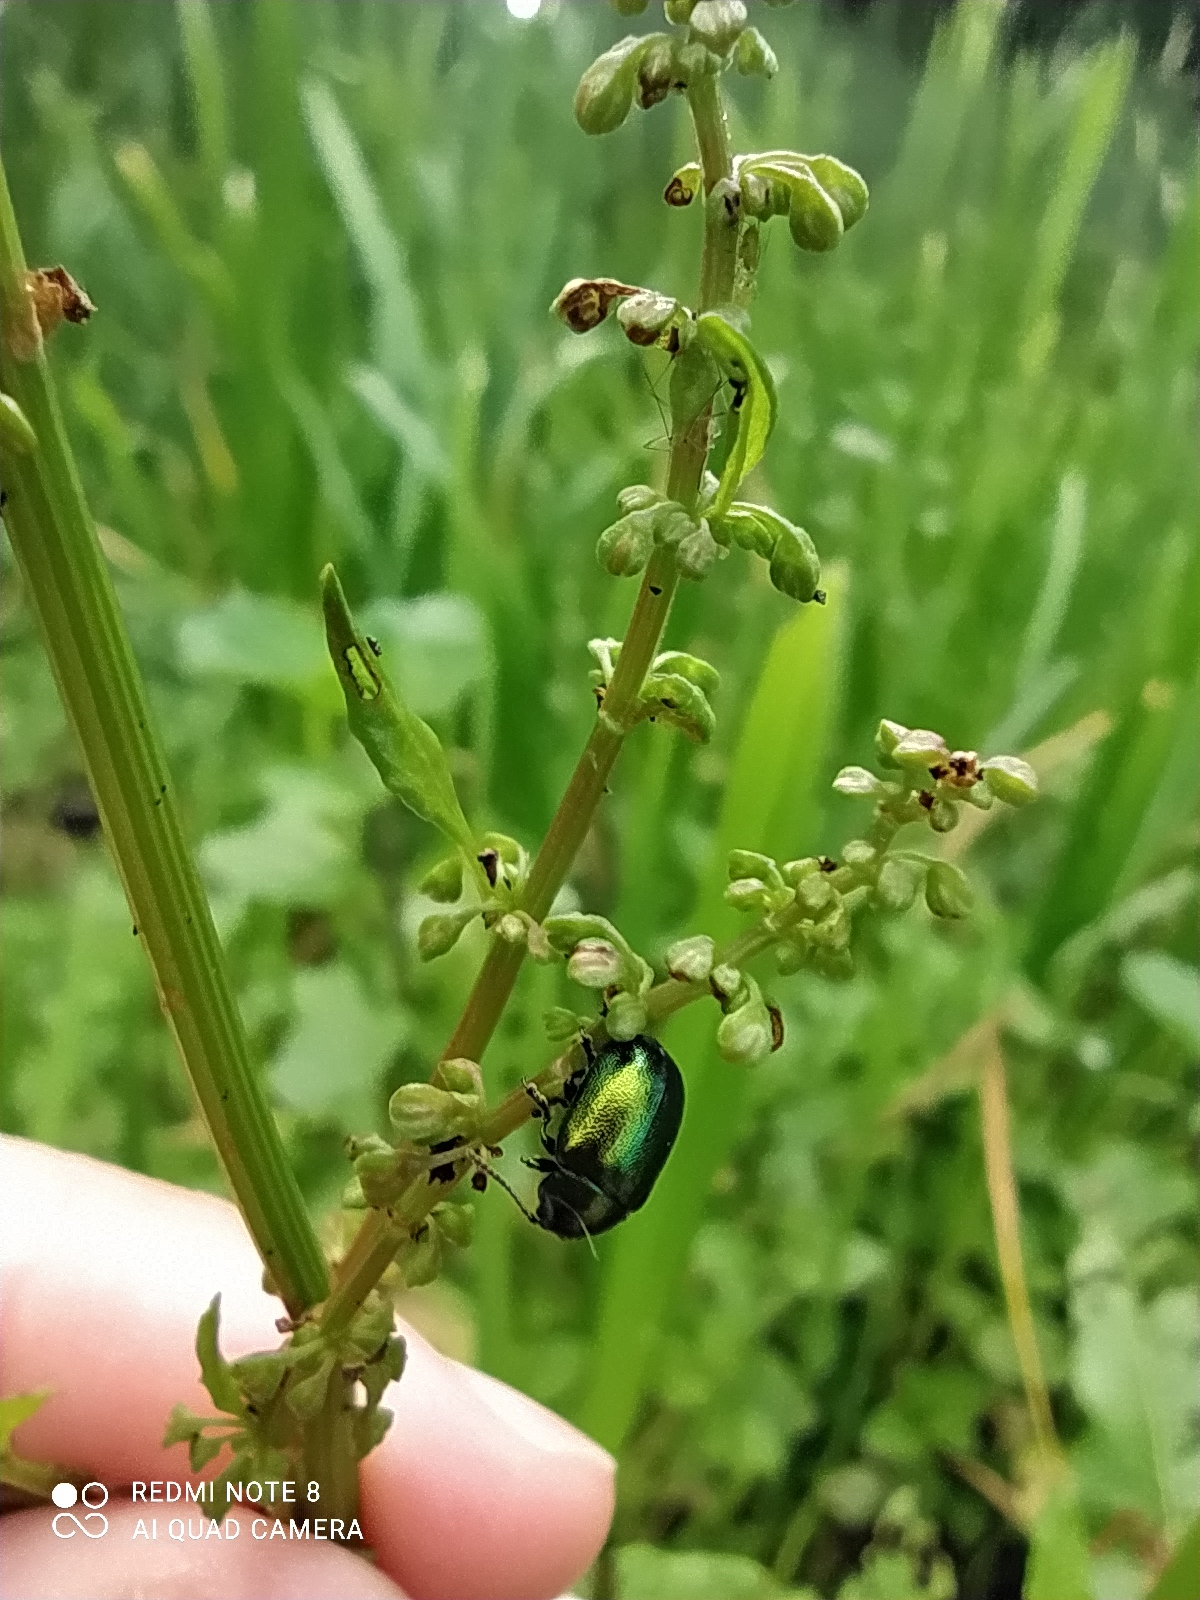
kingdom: Animalia
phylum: Arthropoda
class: Insecta
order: Coleoptera
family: Chrysomelidae
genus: Gastrophysa
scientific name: Gastrophysa viridula
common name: Green dock beetle
